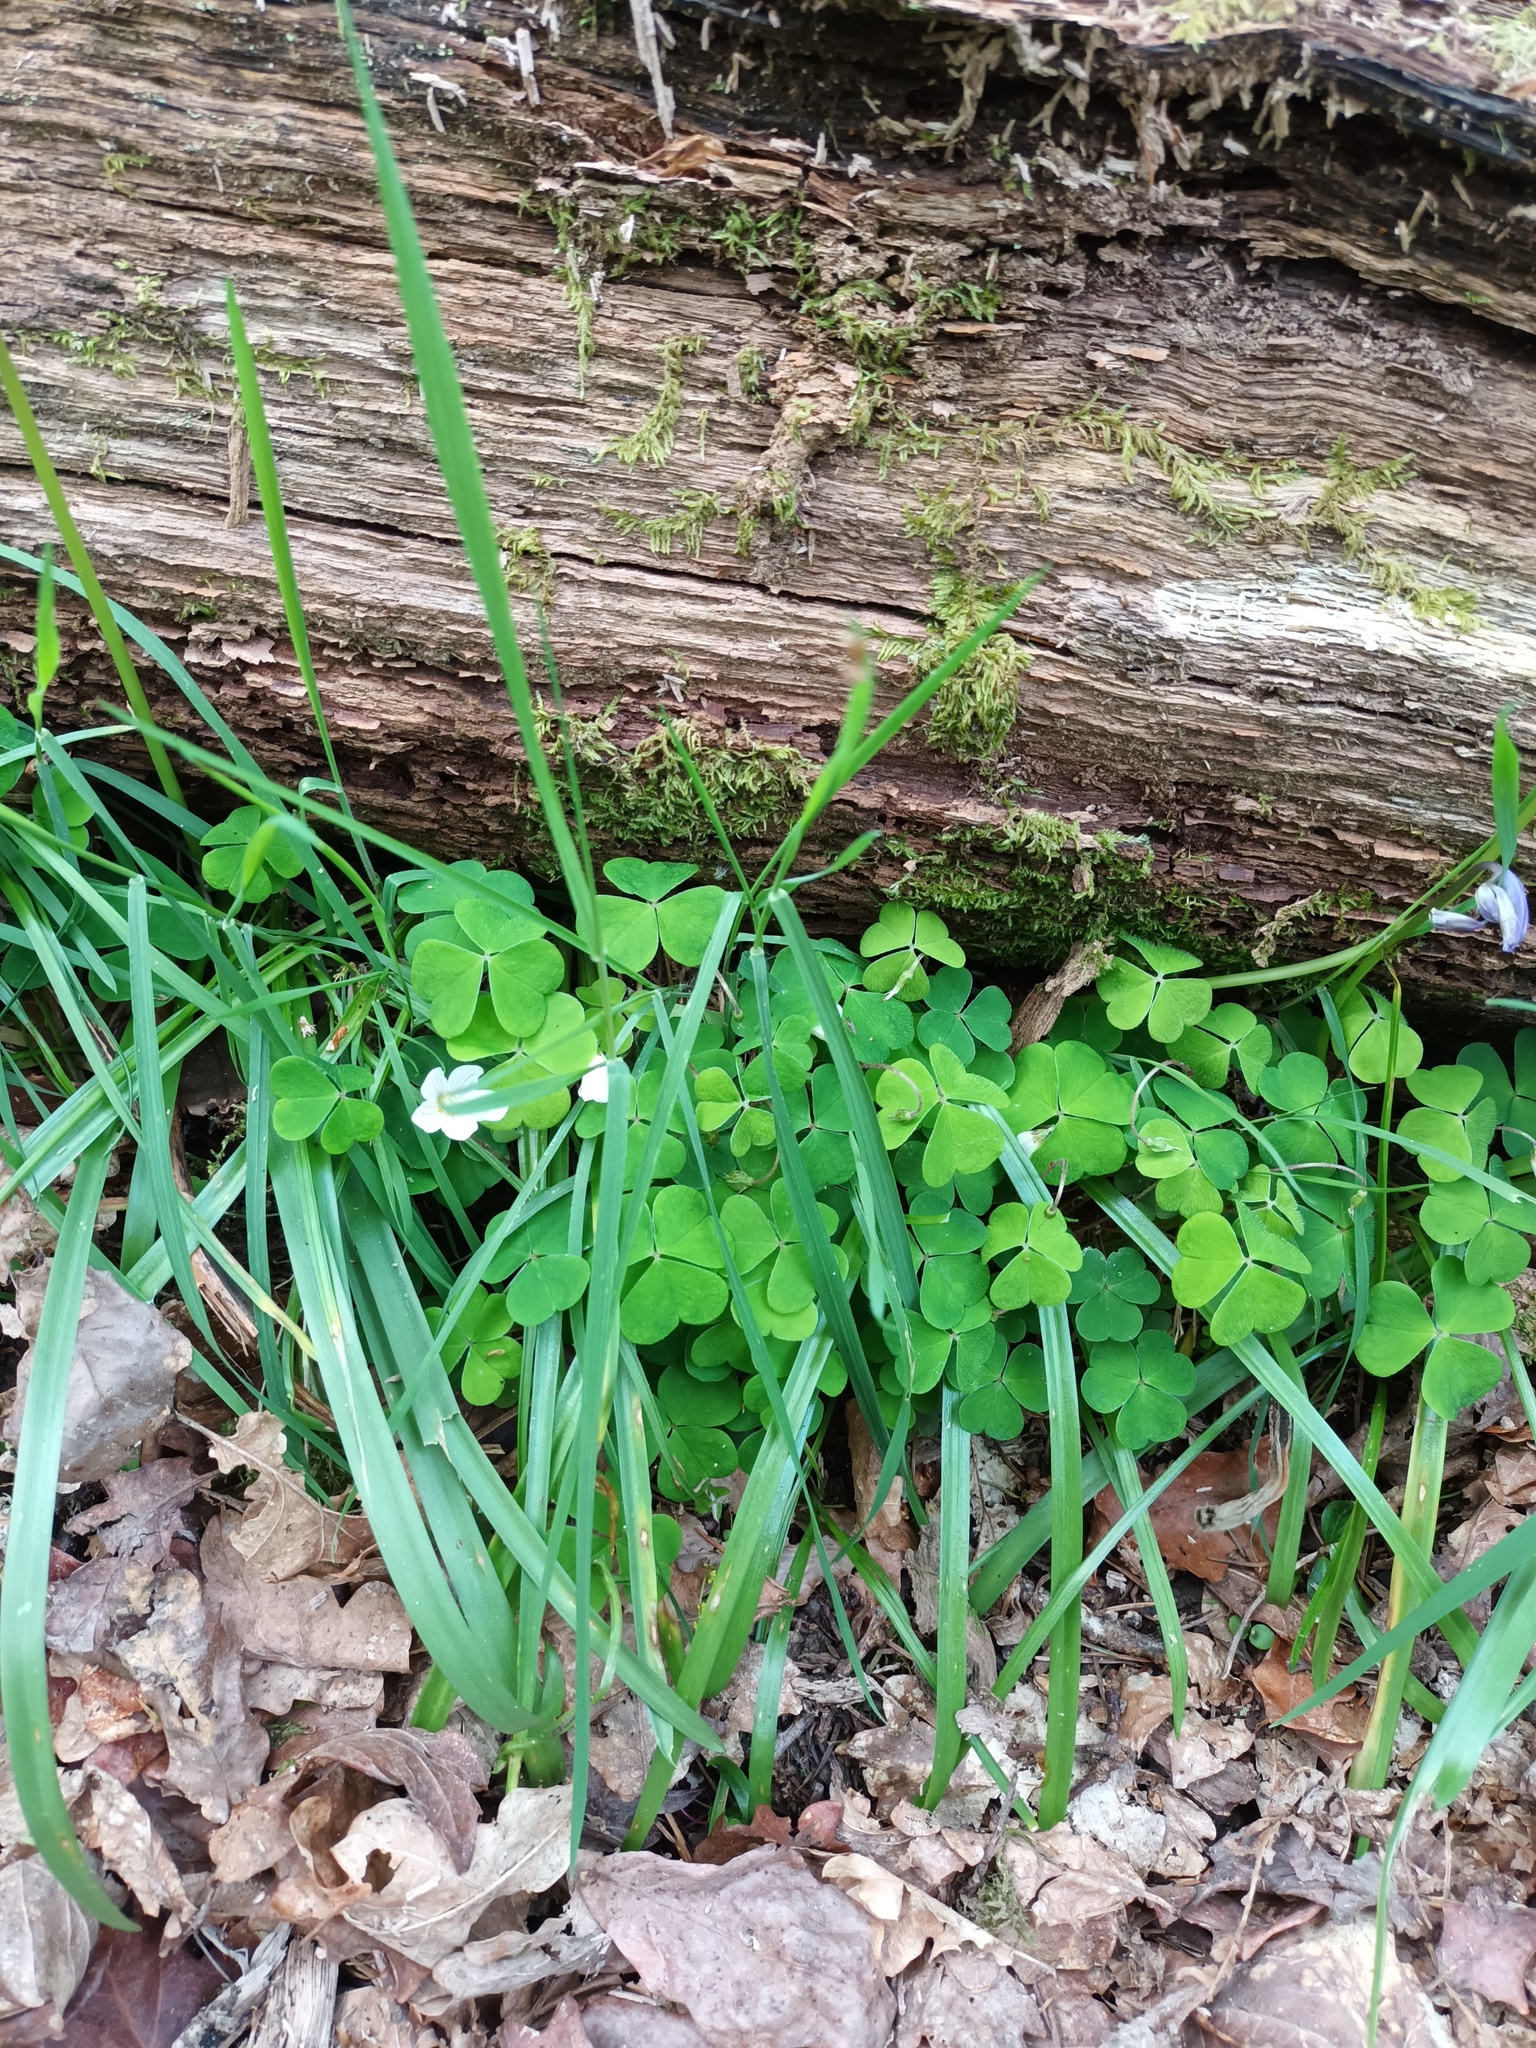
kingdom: Plantae
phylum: Tracheophyta
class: Magnoliopsida
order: Oxalidales
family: Oxalidaceae
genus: Oxalis
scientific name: Oxalis acetosella
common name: Wood-sorrel
